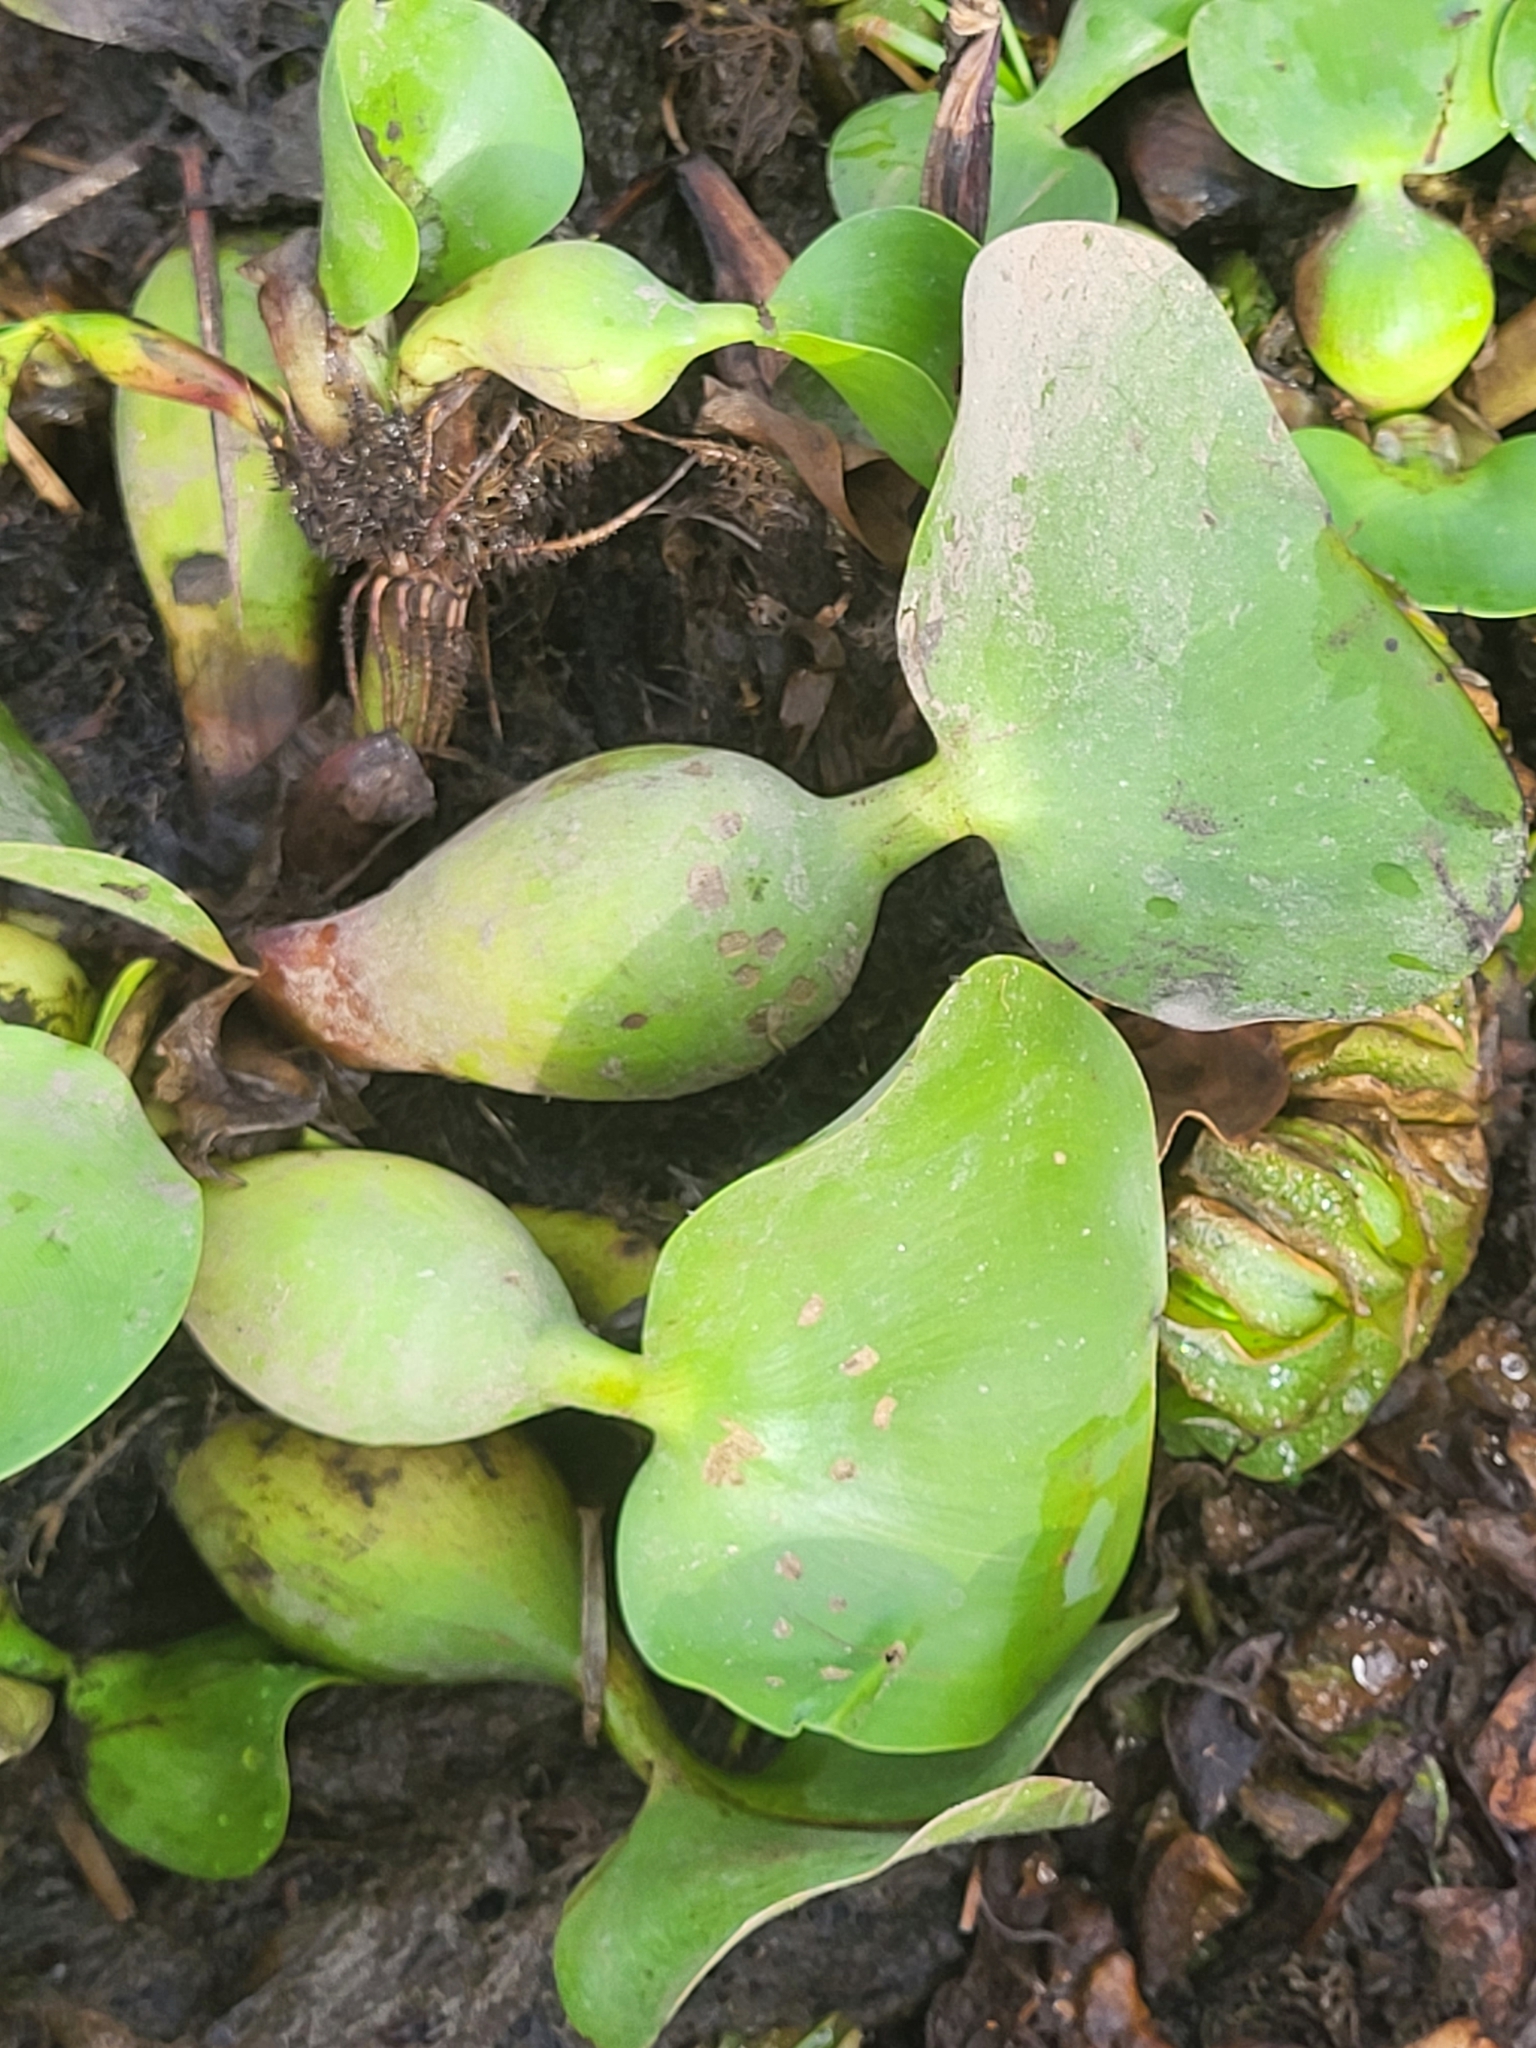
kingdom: Plantae
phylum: Tracheophyta
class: Liliopsida
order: Commelinales
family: Pontederiaceae
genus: Pontederia
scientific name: Pontederia crassipes
